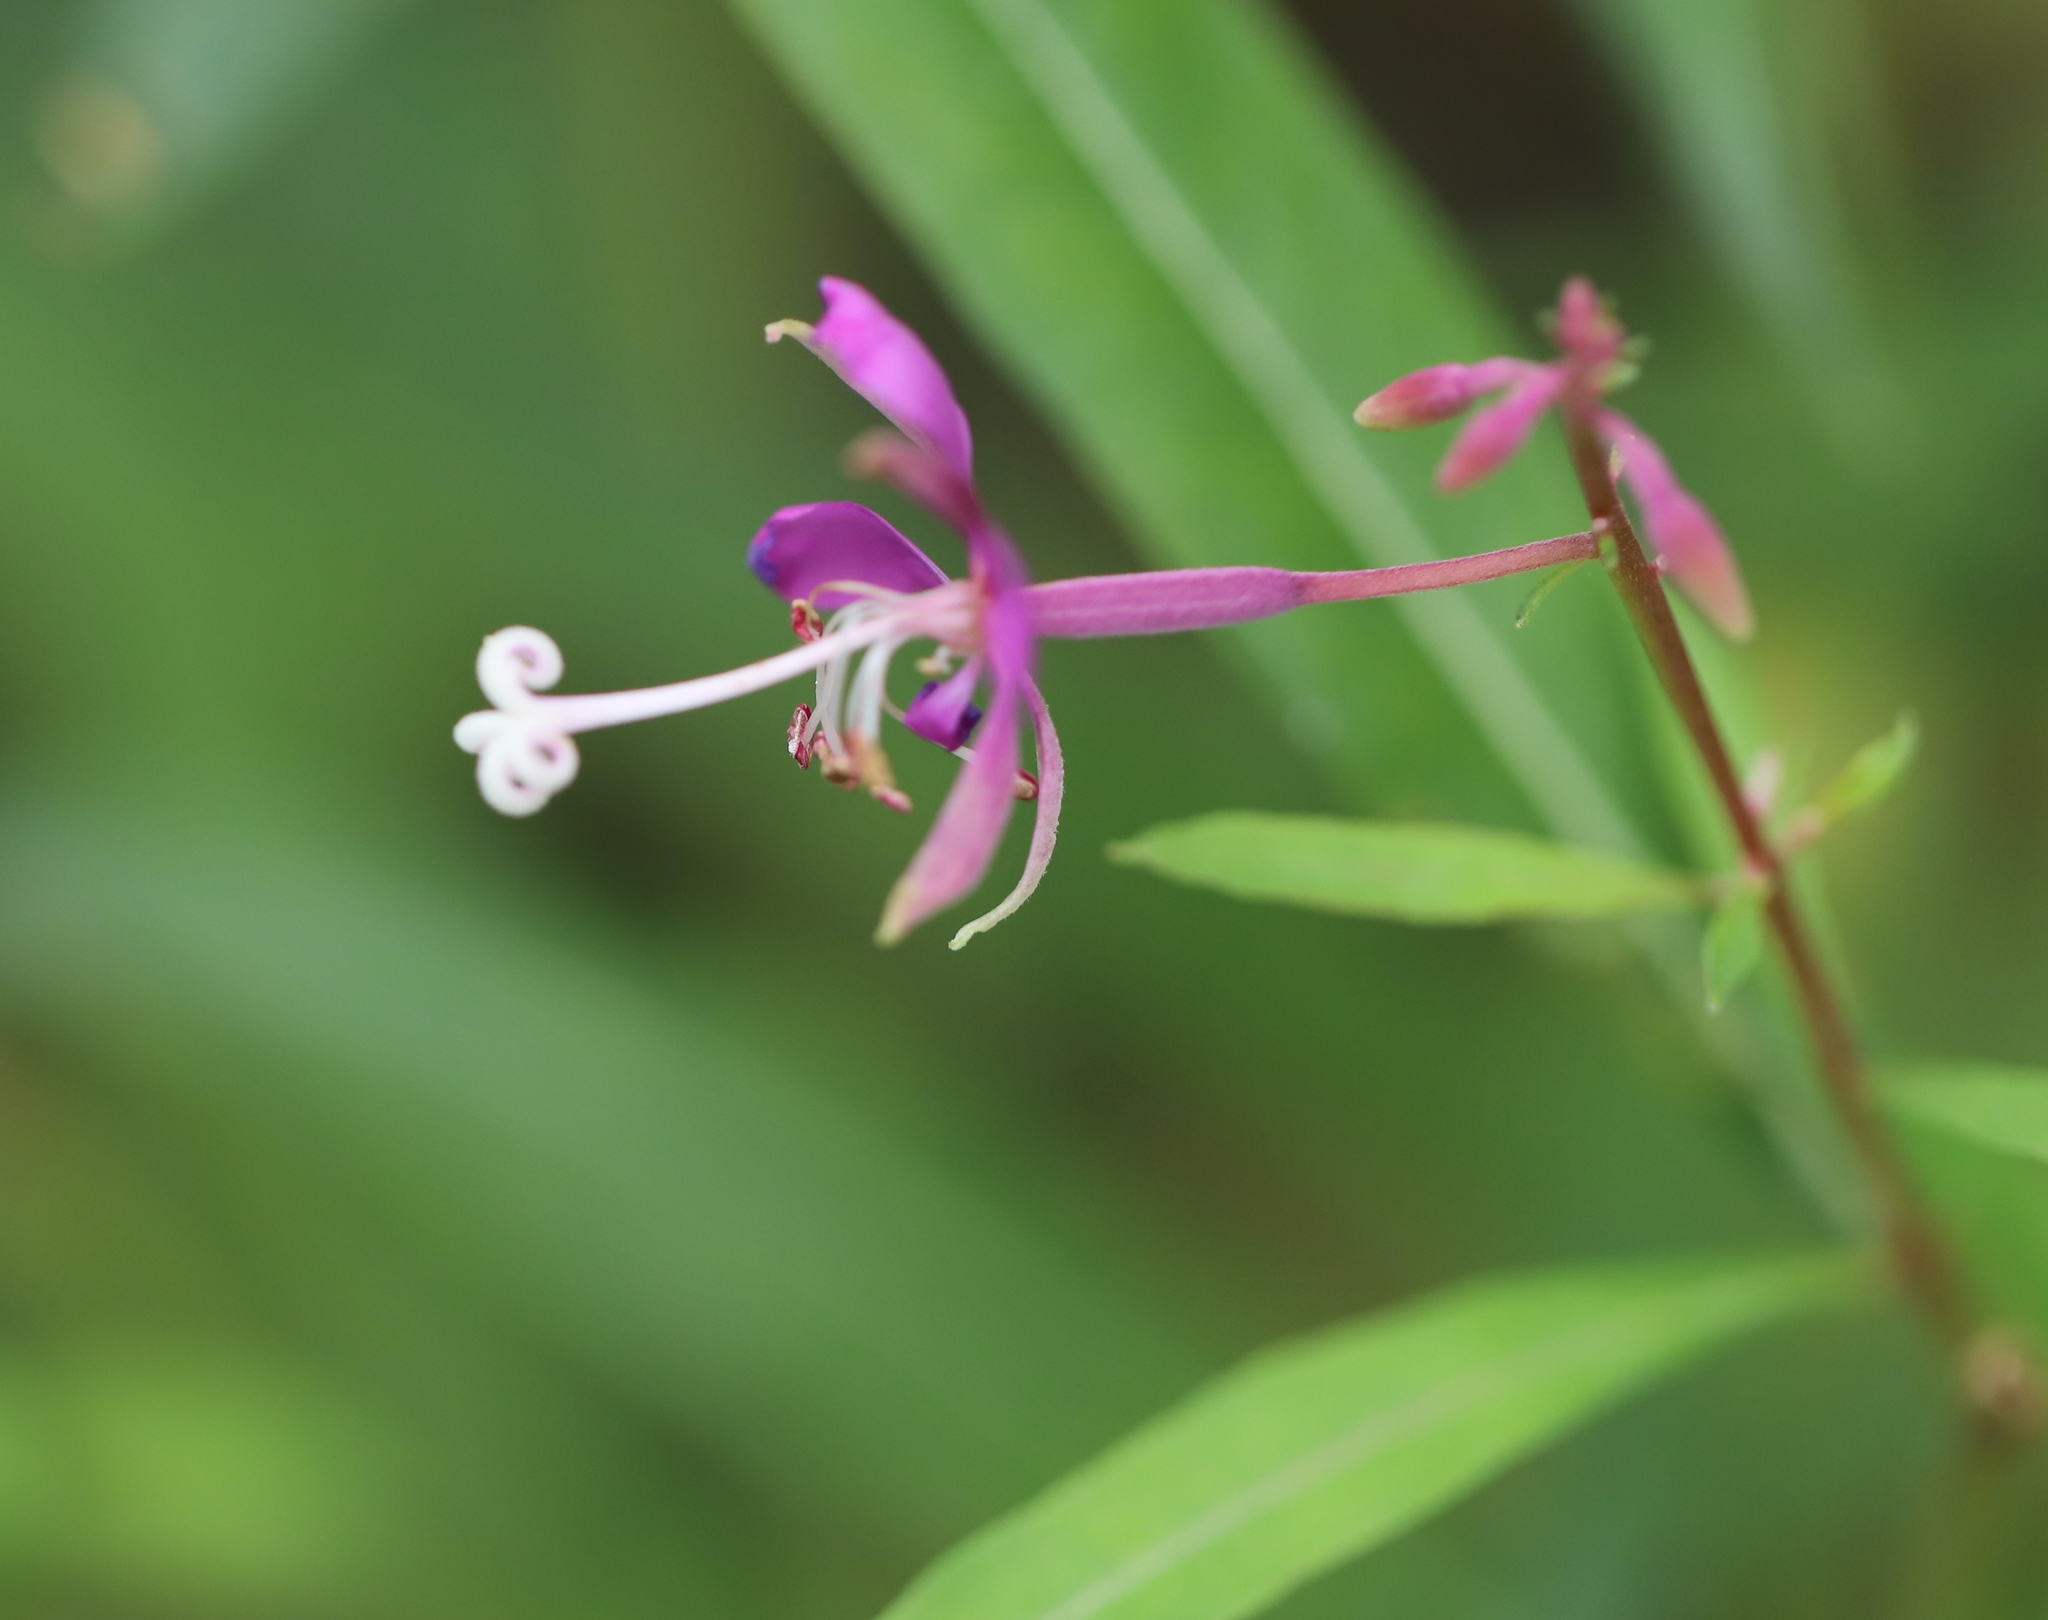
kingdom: Plantae
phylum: Tracheophyta
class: Magnoliopsida
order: Myrtales
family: Onagraceae
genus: Chamaenerion
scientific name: Chamaenerion angustifolium
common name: Fireweed
